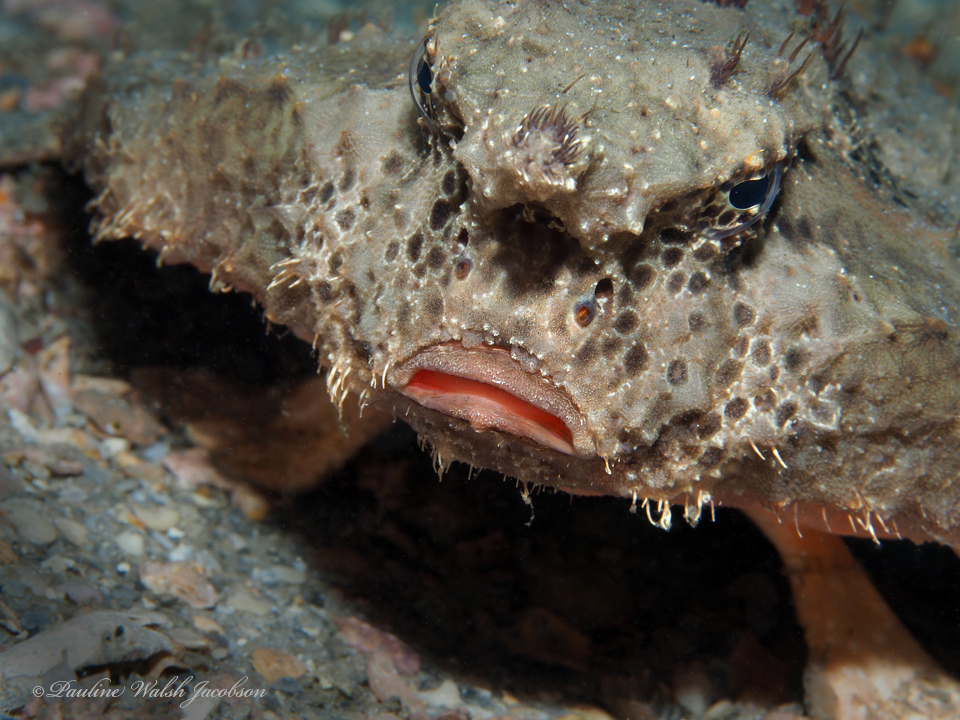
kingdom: Animalia
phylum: Chordata
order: Lophiiformes
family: Ogcocephalidae
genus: Ogcocephalus
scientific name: Ogcocephalus cubifrons
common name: Polka-dot batfish
